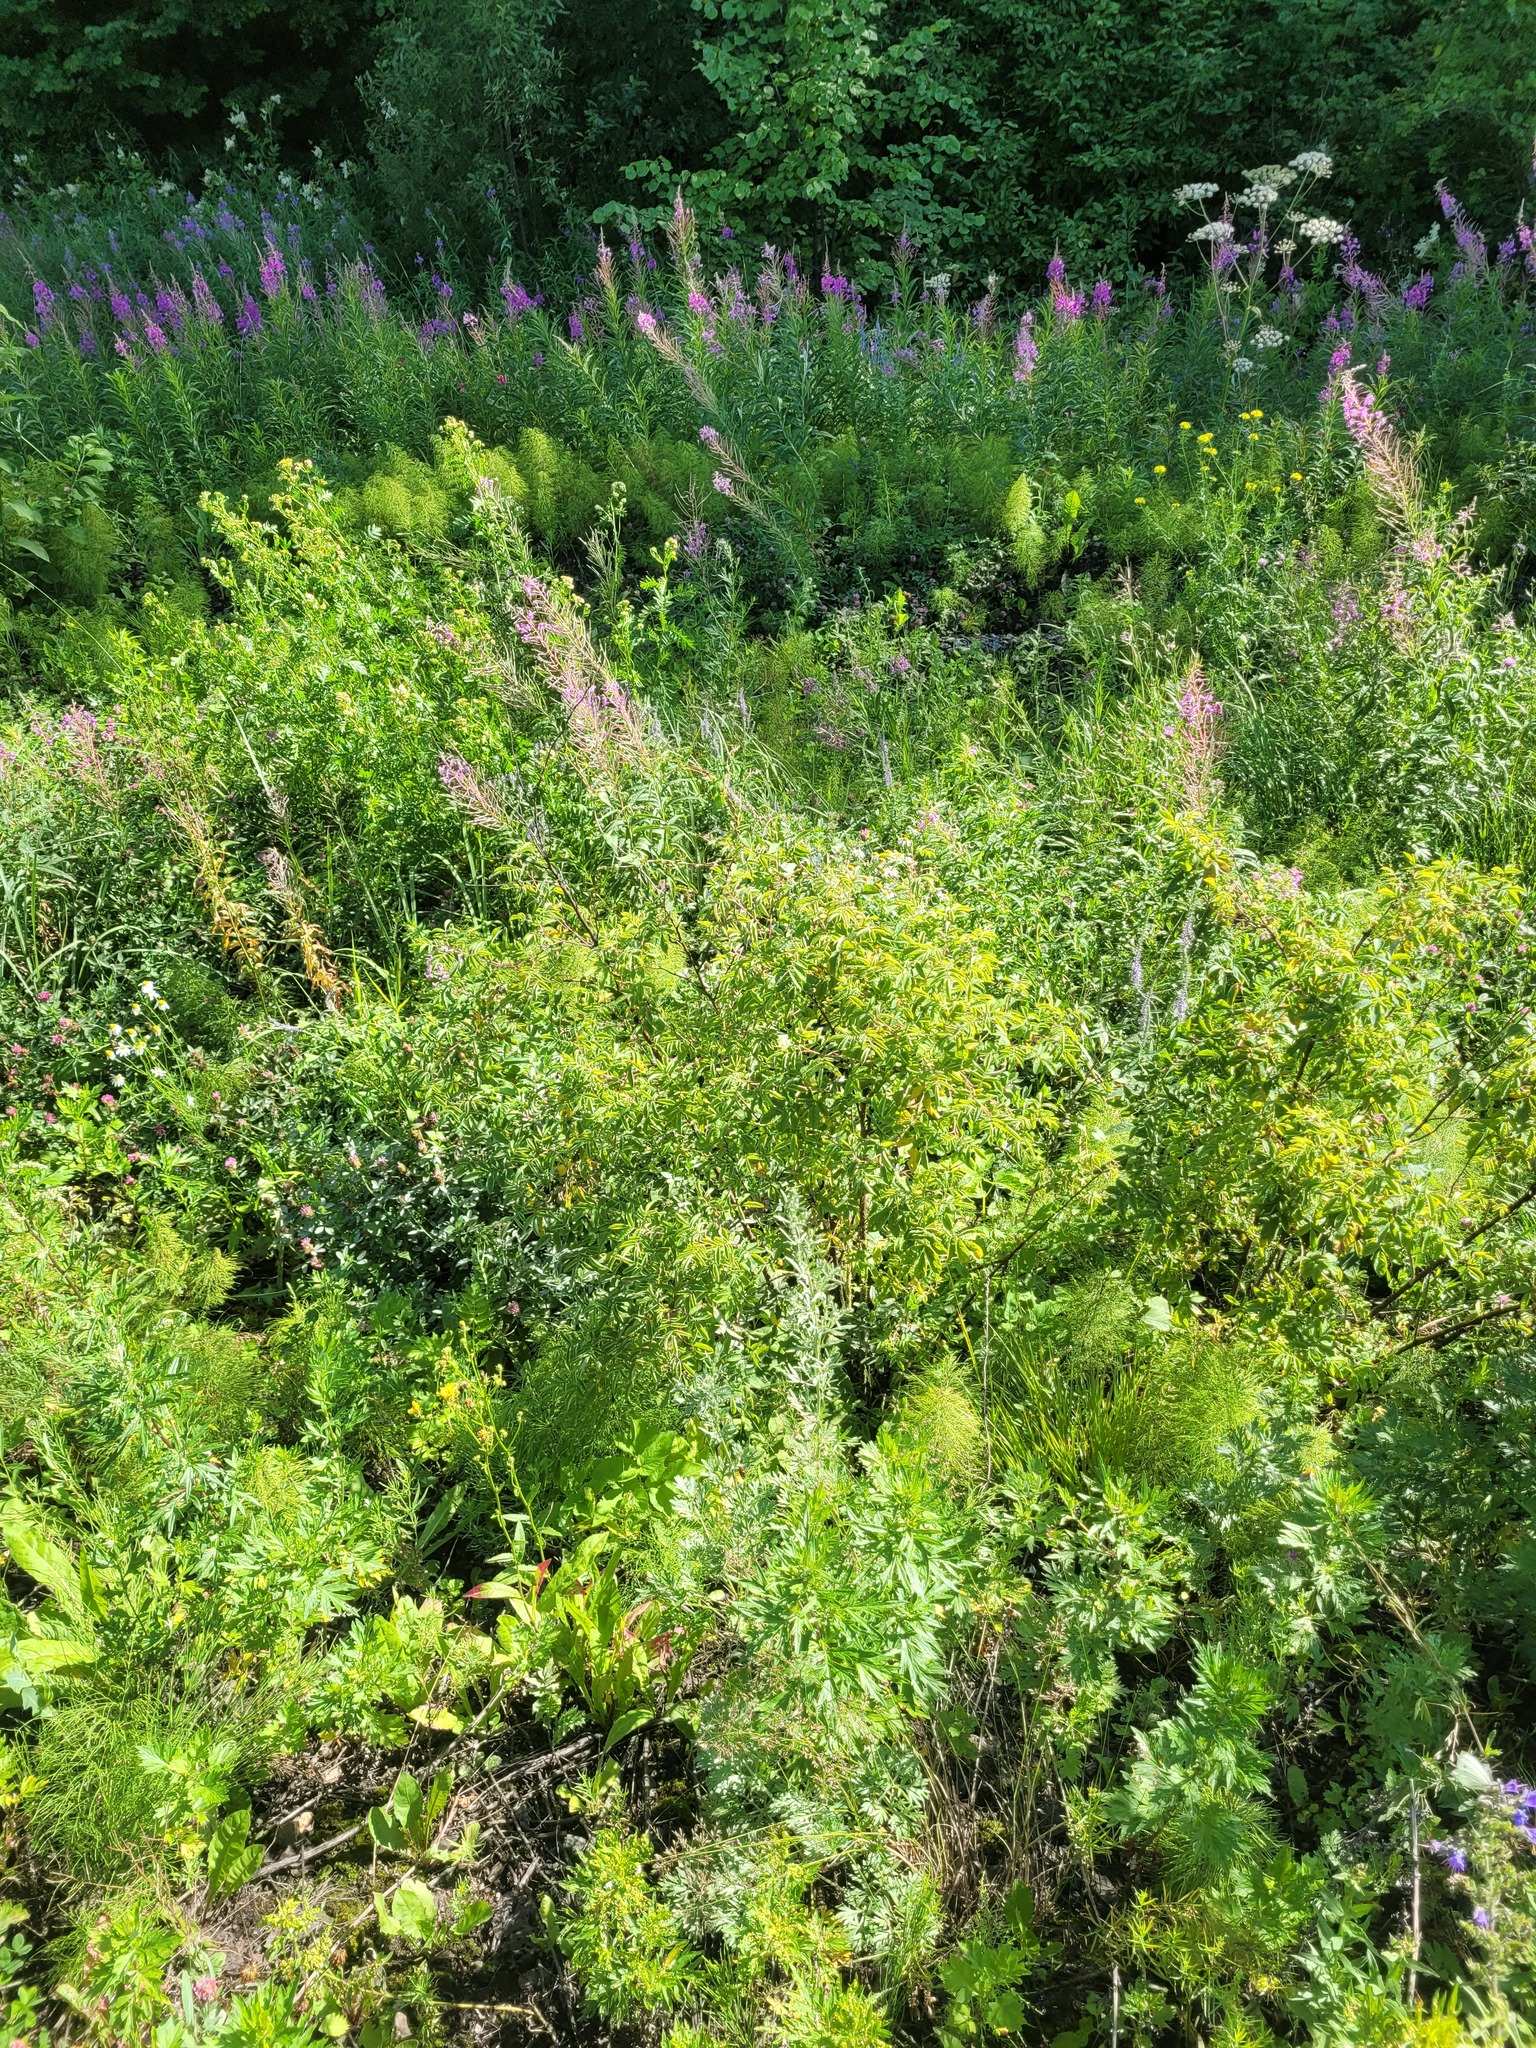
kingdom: Plantae
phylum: Tracheophyta
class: Magnoliopsida
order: Rosales
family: Rosaceae
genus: Rosa
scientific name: Rosa majalis
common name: Cinnamon rose
